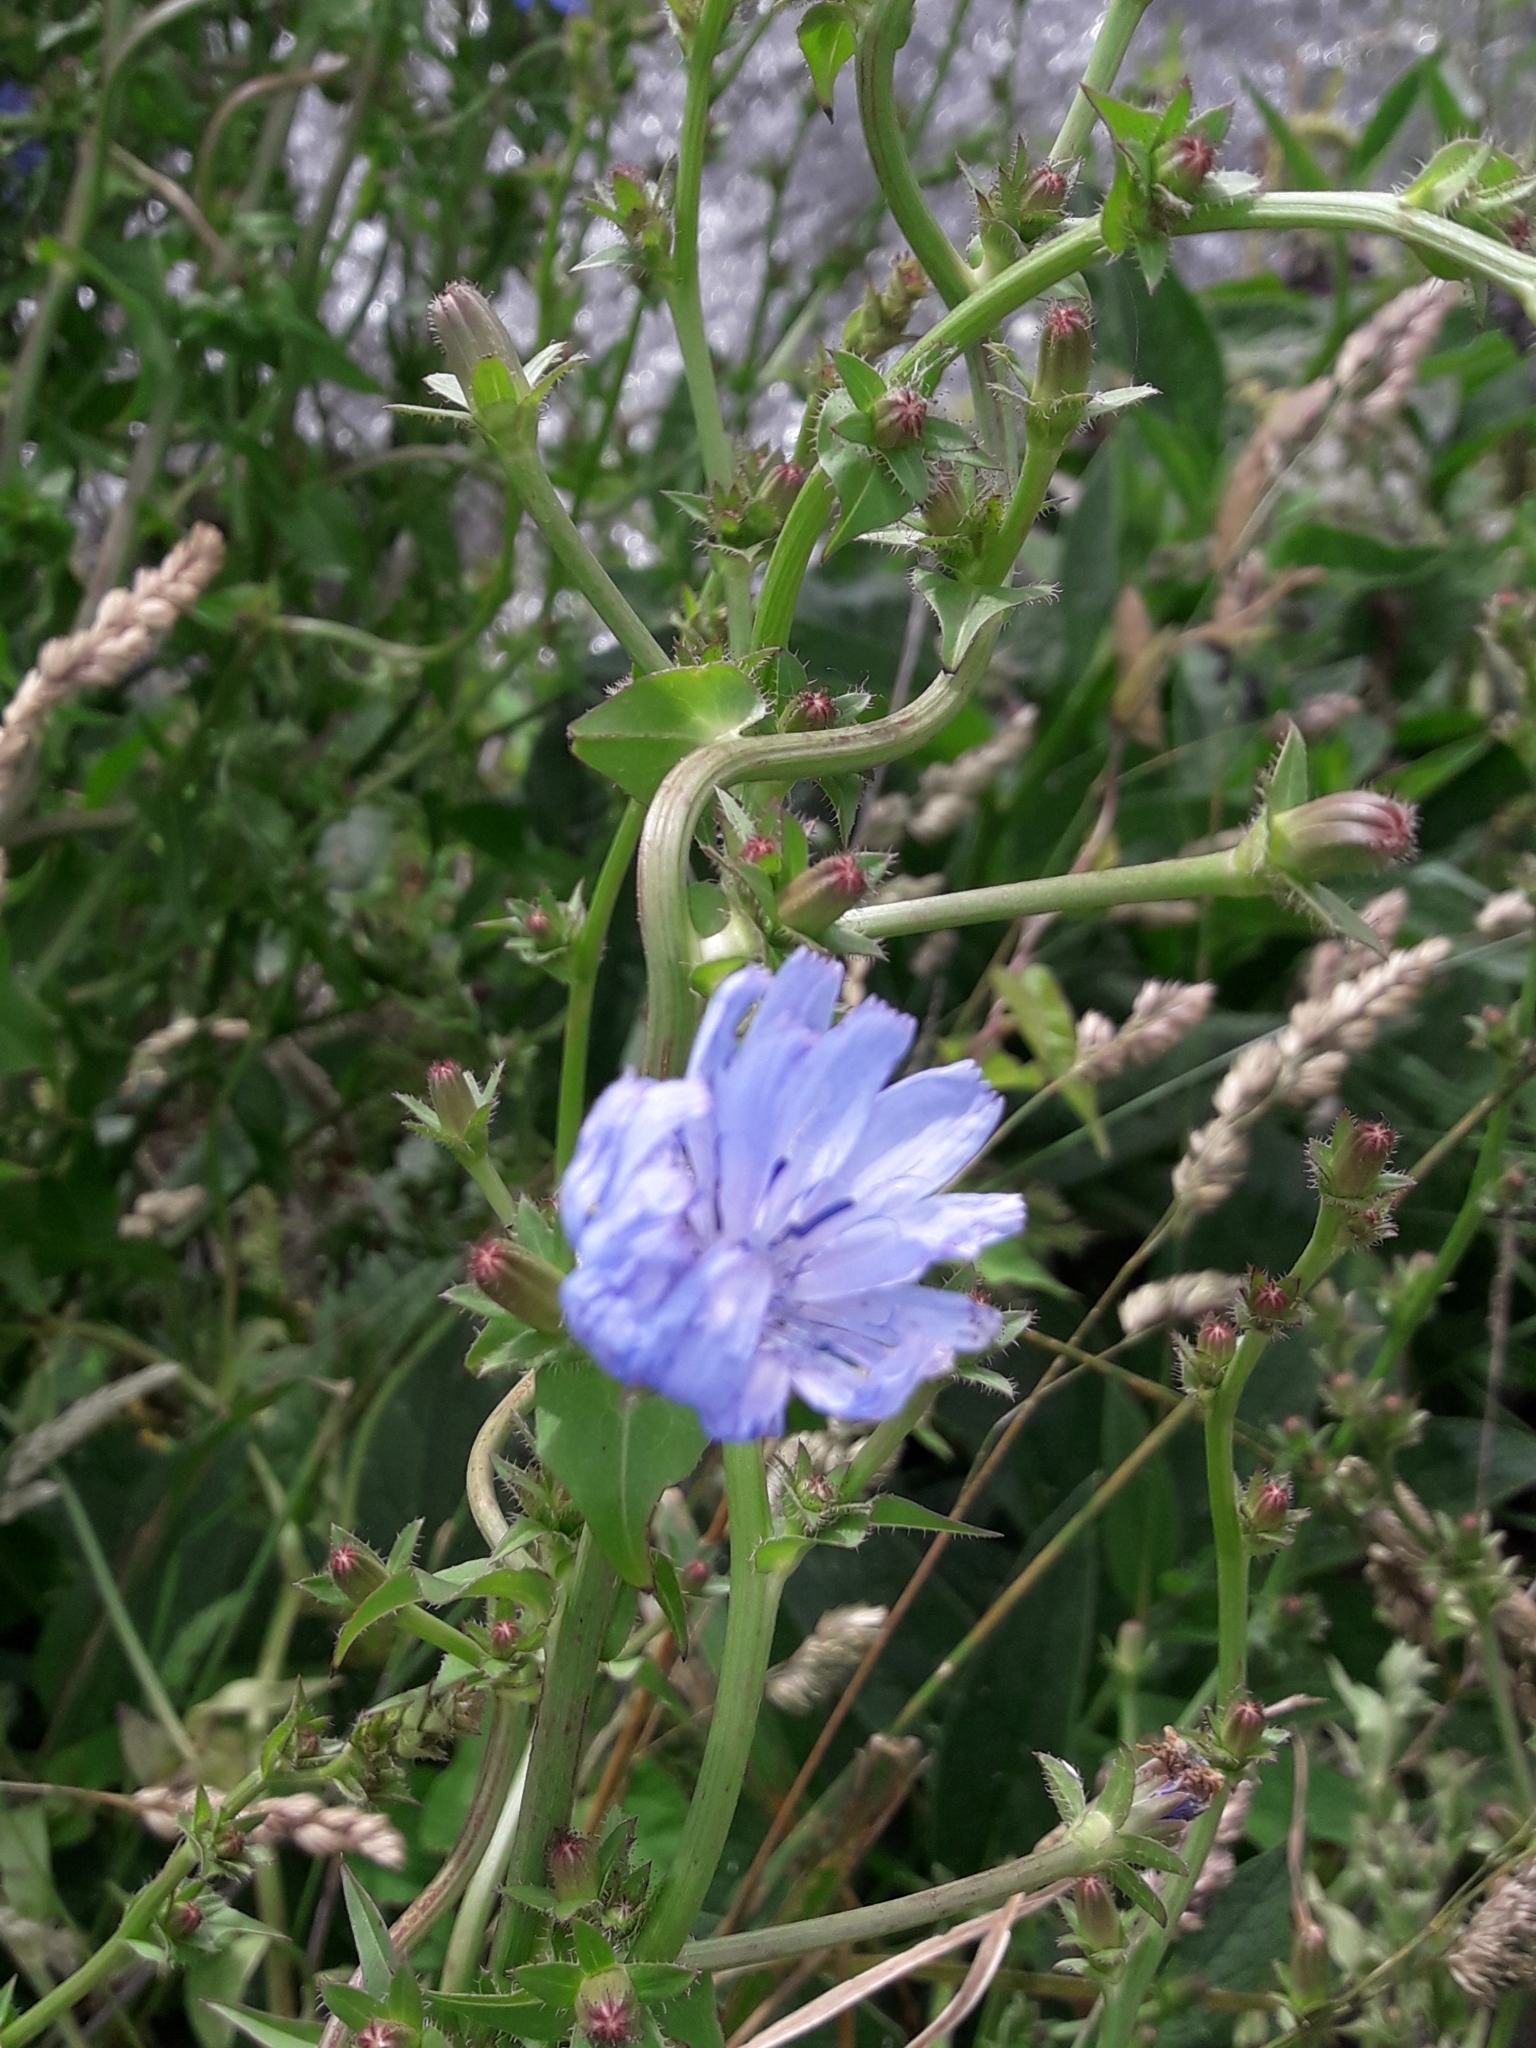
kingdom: Plantae
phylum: Tracheophyta
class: Magnoliopsida
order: Asterales
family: Asteraceae
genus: Cichorium
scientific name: Cichorium intybus
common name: Chicory
